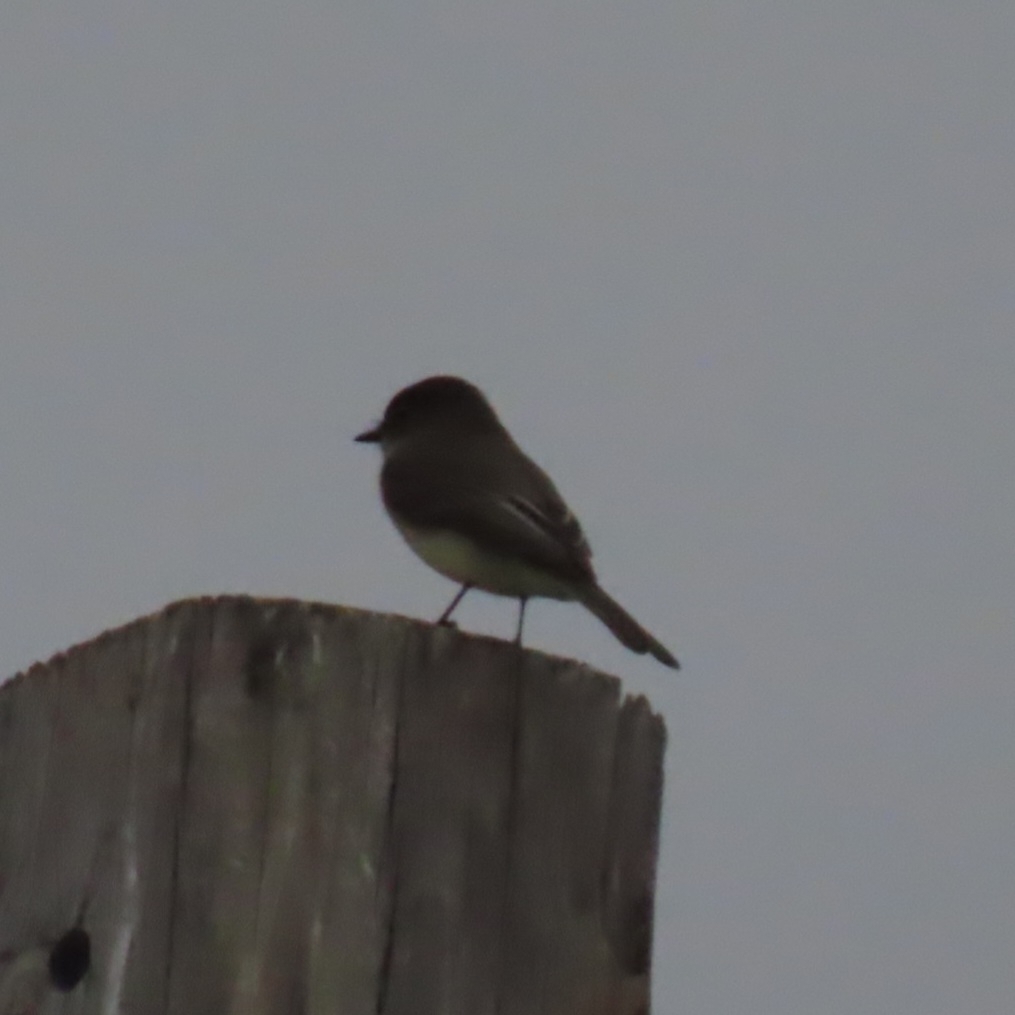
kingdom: Animalia
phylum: Chordata
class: Aves
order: Passeriformes
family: Tyrannidae
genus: Sayornis
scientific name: Sayornis phoebe
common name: Eastern phoebe
